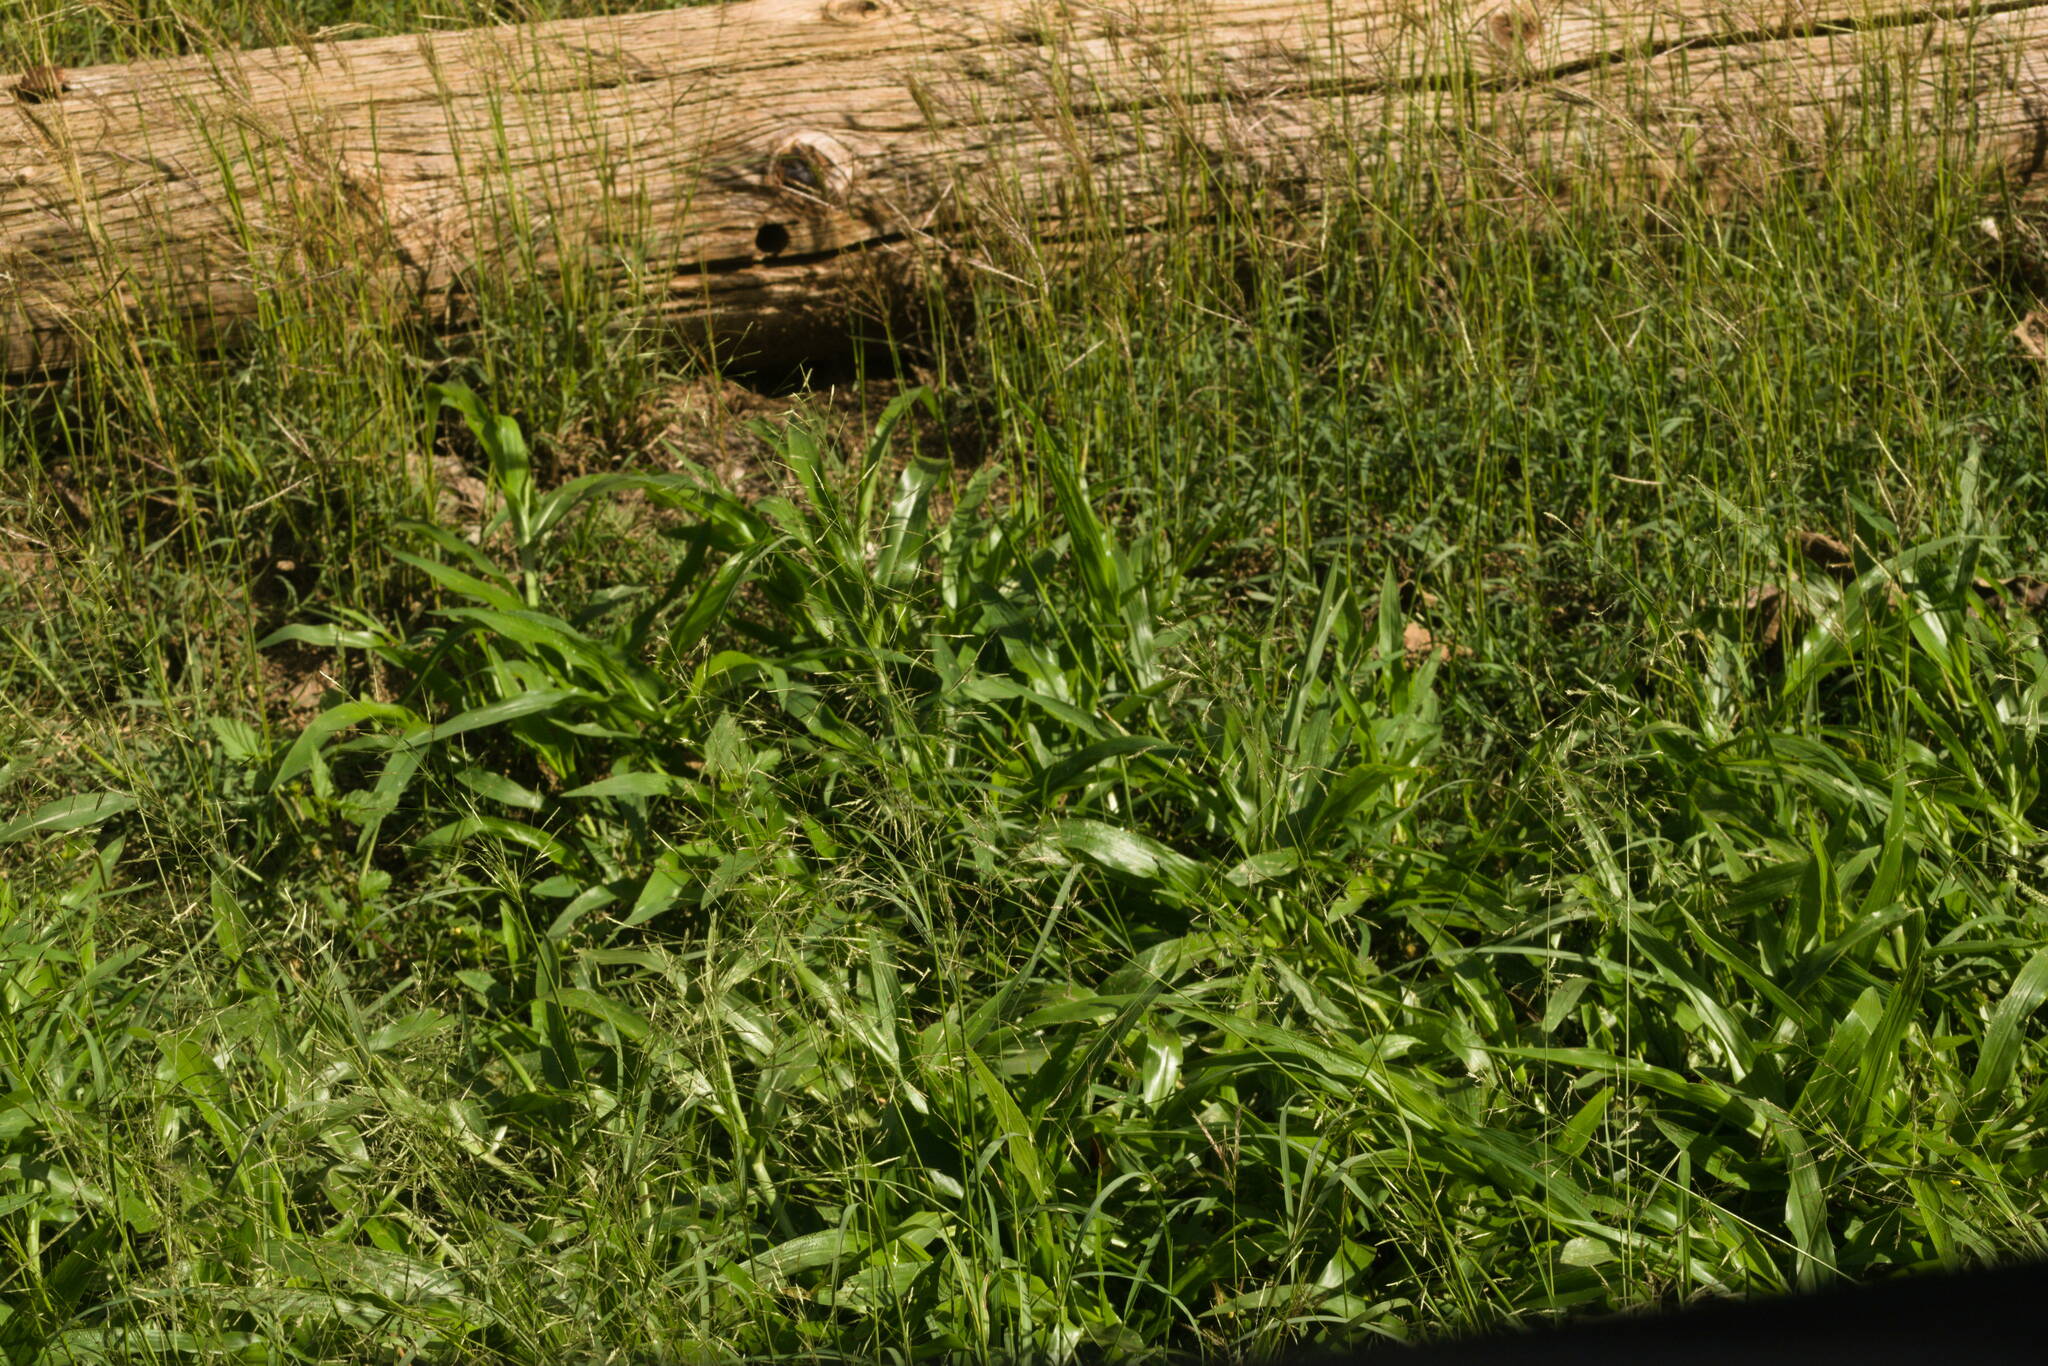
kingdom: Plantae
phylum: Tracheophyta
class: Liliopsida
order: Poales
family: Poaceae
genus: Urochloa
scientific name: Urochloa plantaginea
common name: Plantain signalgrass
